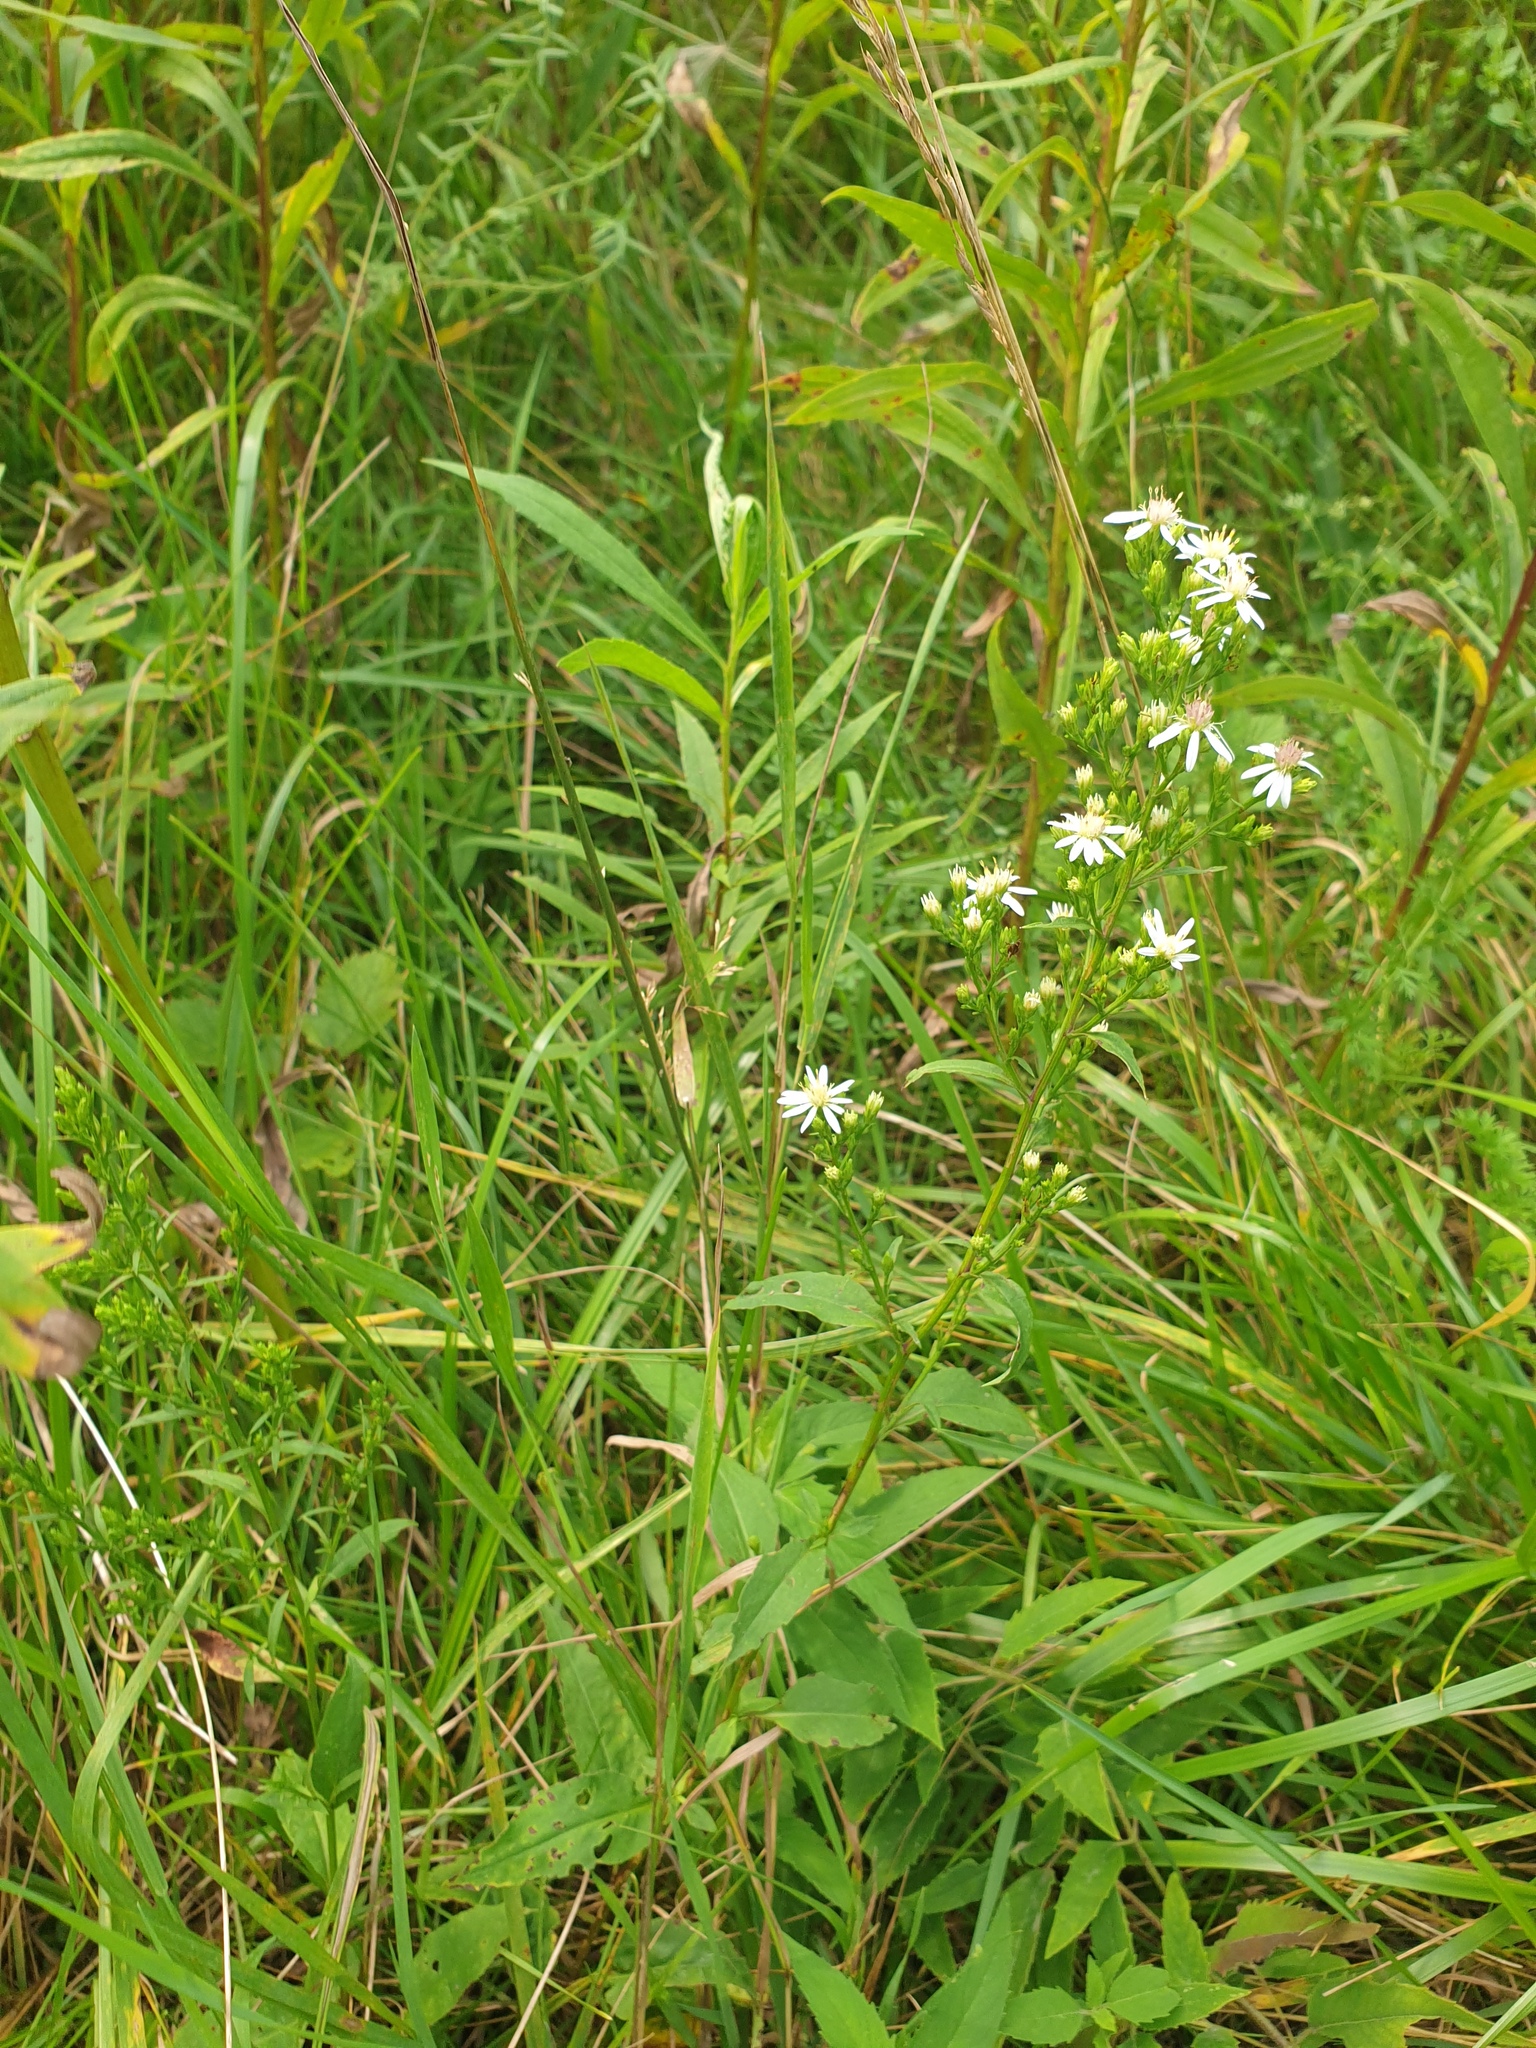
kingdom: Plantae
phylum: Tracheophyta
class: Magnoliopsida
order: Asterales
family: Asteraceae
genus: Symphyotrichum
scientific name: Symphyotrichum urophyllum
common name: Arrow-leaved aster
